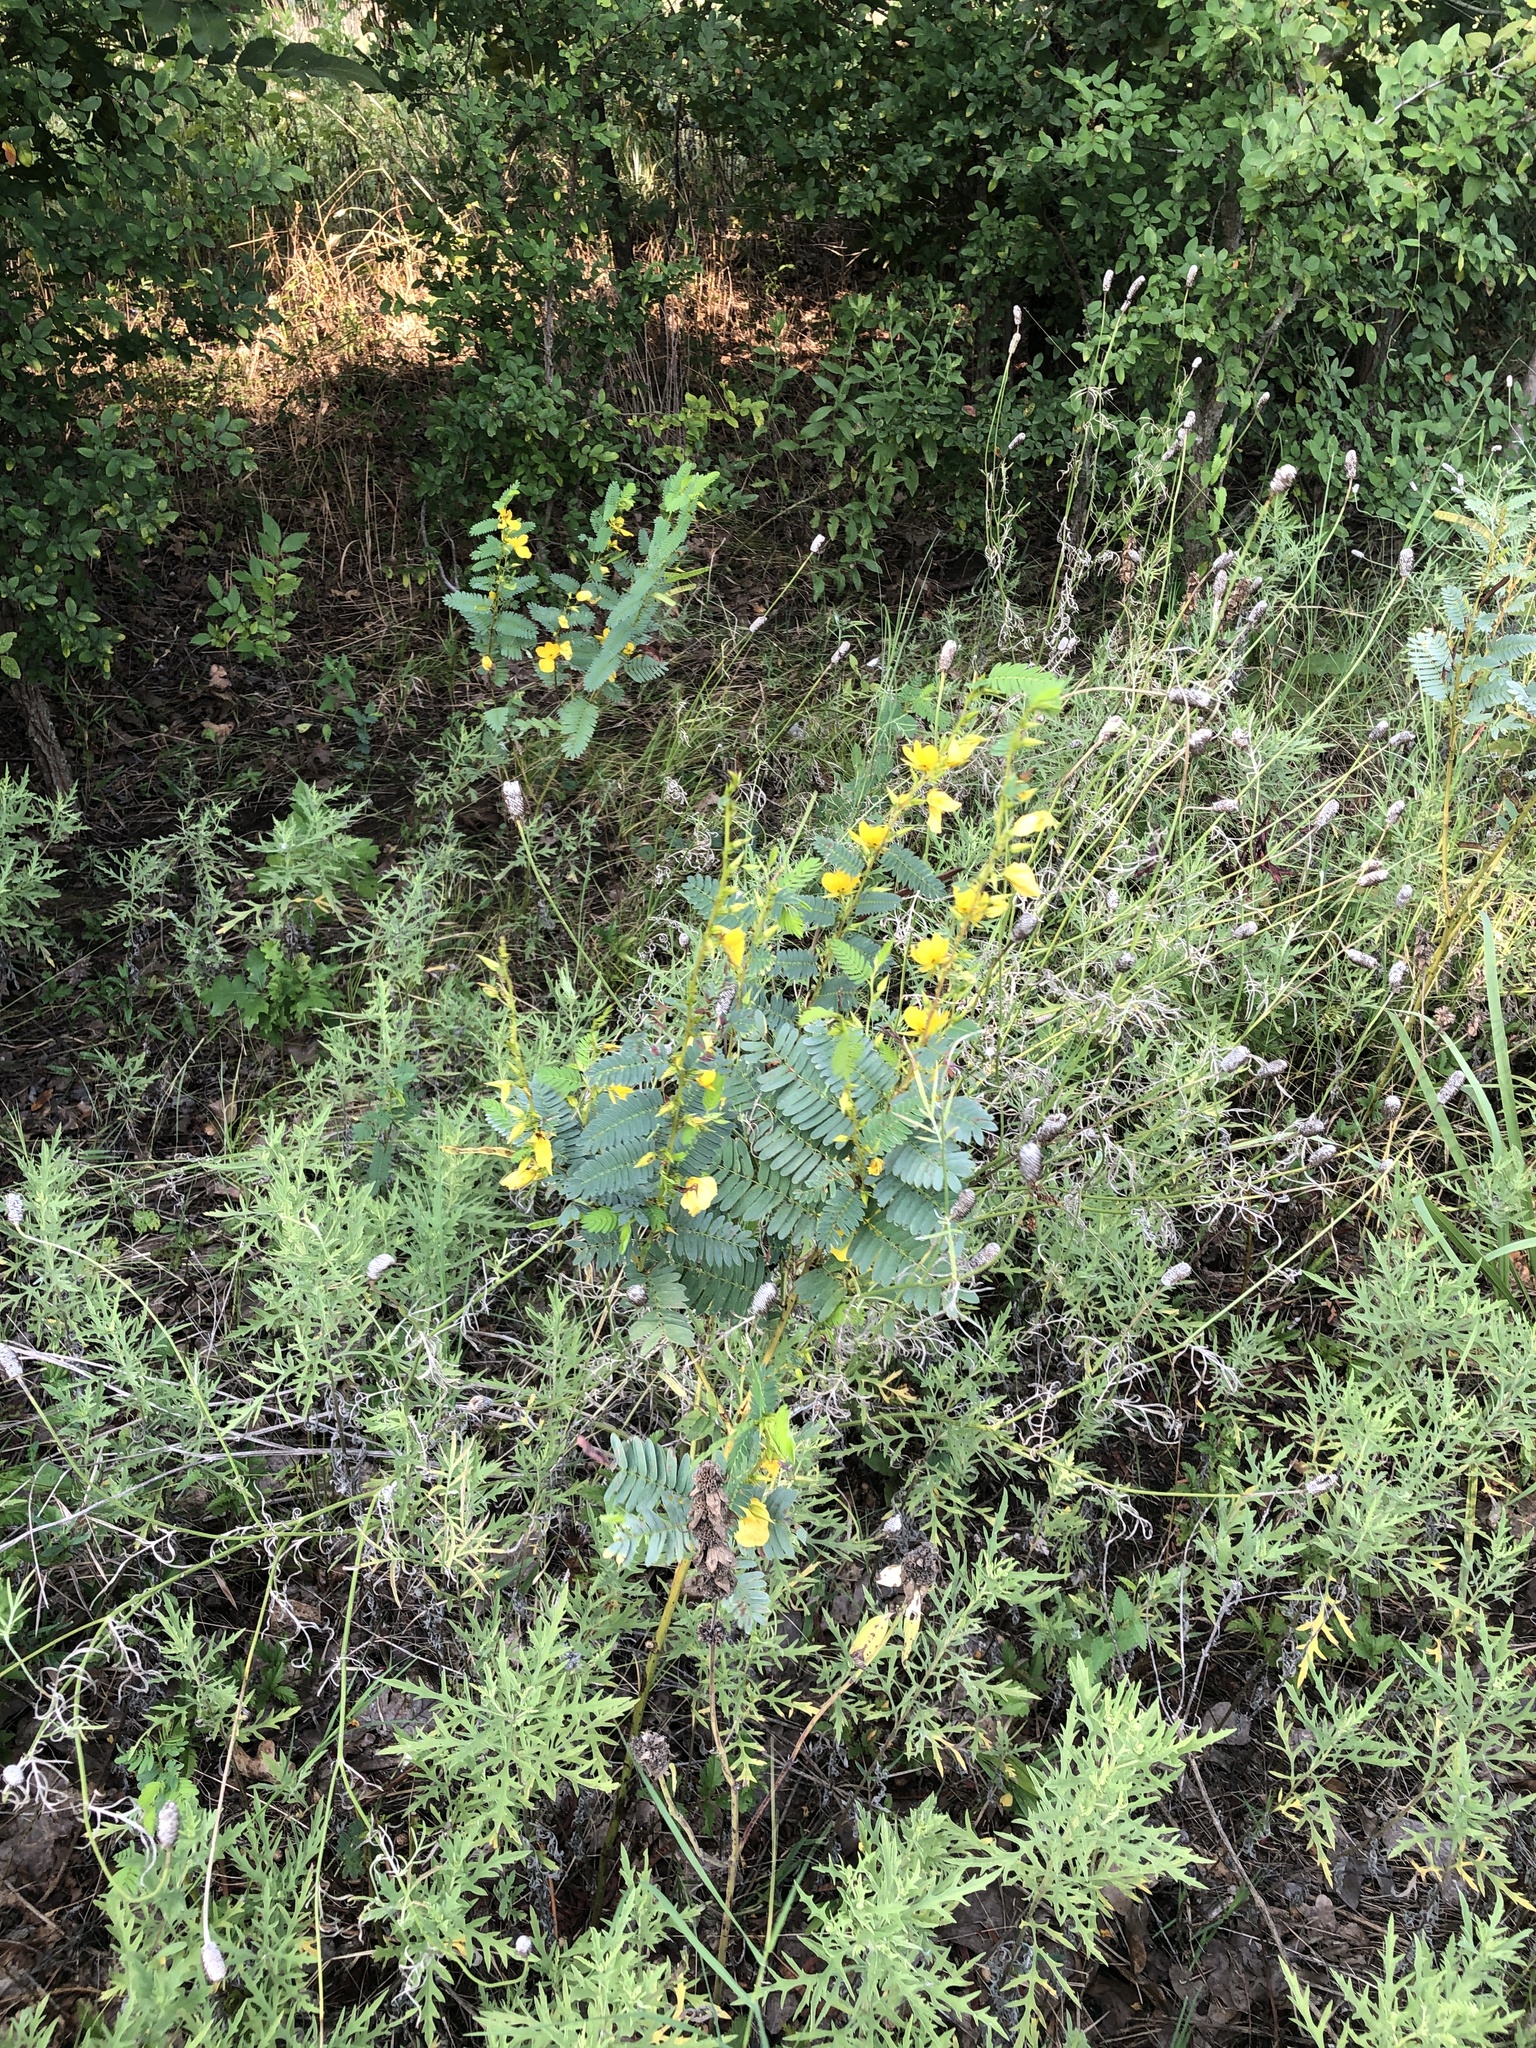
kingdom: Plantae
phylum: Tracheophyta
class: Magnoliopsida
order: Fabales
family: Fabaceae
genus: Chamaecrista
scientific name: Chamaecrista fasciculata
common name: Golden cassia
